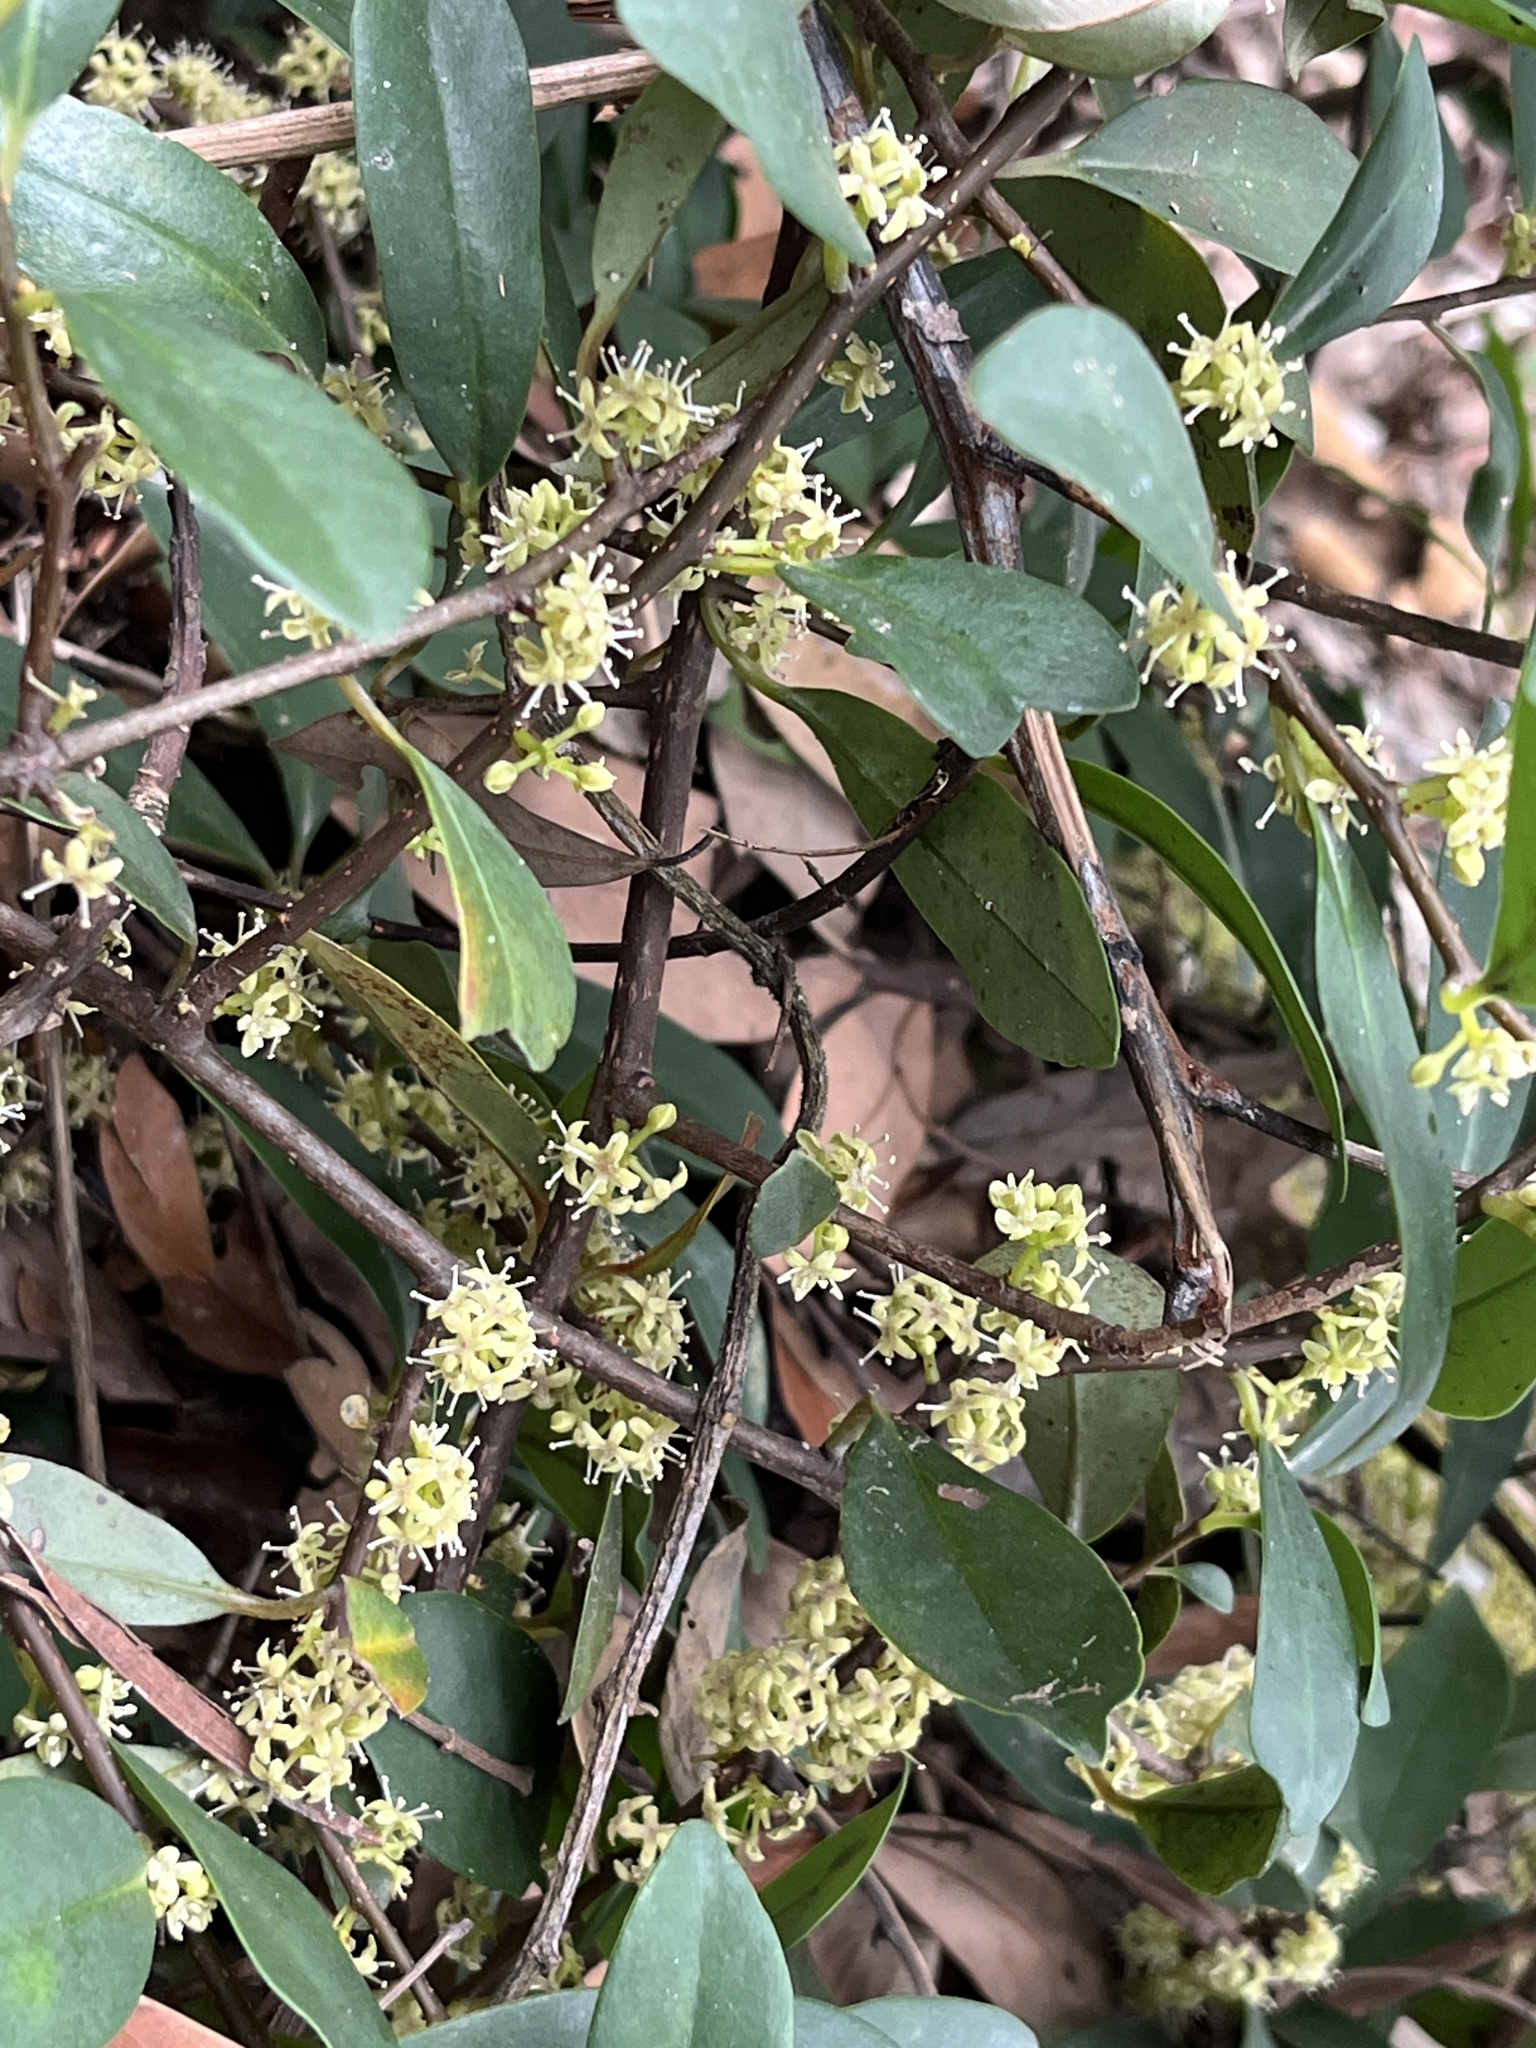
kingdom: Plantae
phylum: Tracheophyta
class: Magnoliopsida
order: Ericales
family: Primulaceae
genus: Embelia
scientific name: Embelia laeta
